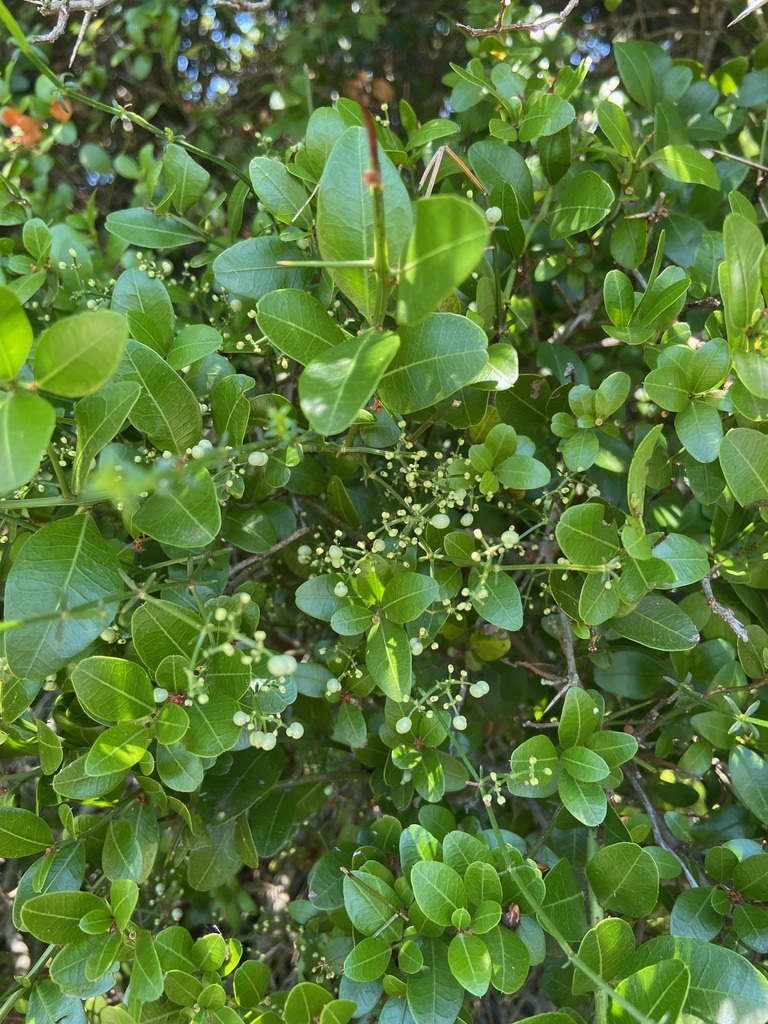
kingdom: Plantae
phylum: Tracheophyta
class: Magnoliopsida
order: Gentianales
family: Rubiaceae
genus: Galium
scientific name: Galium latoramosum
